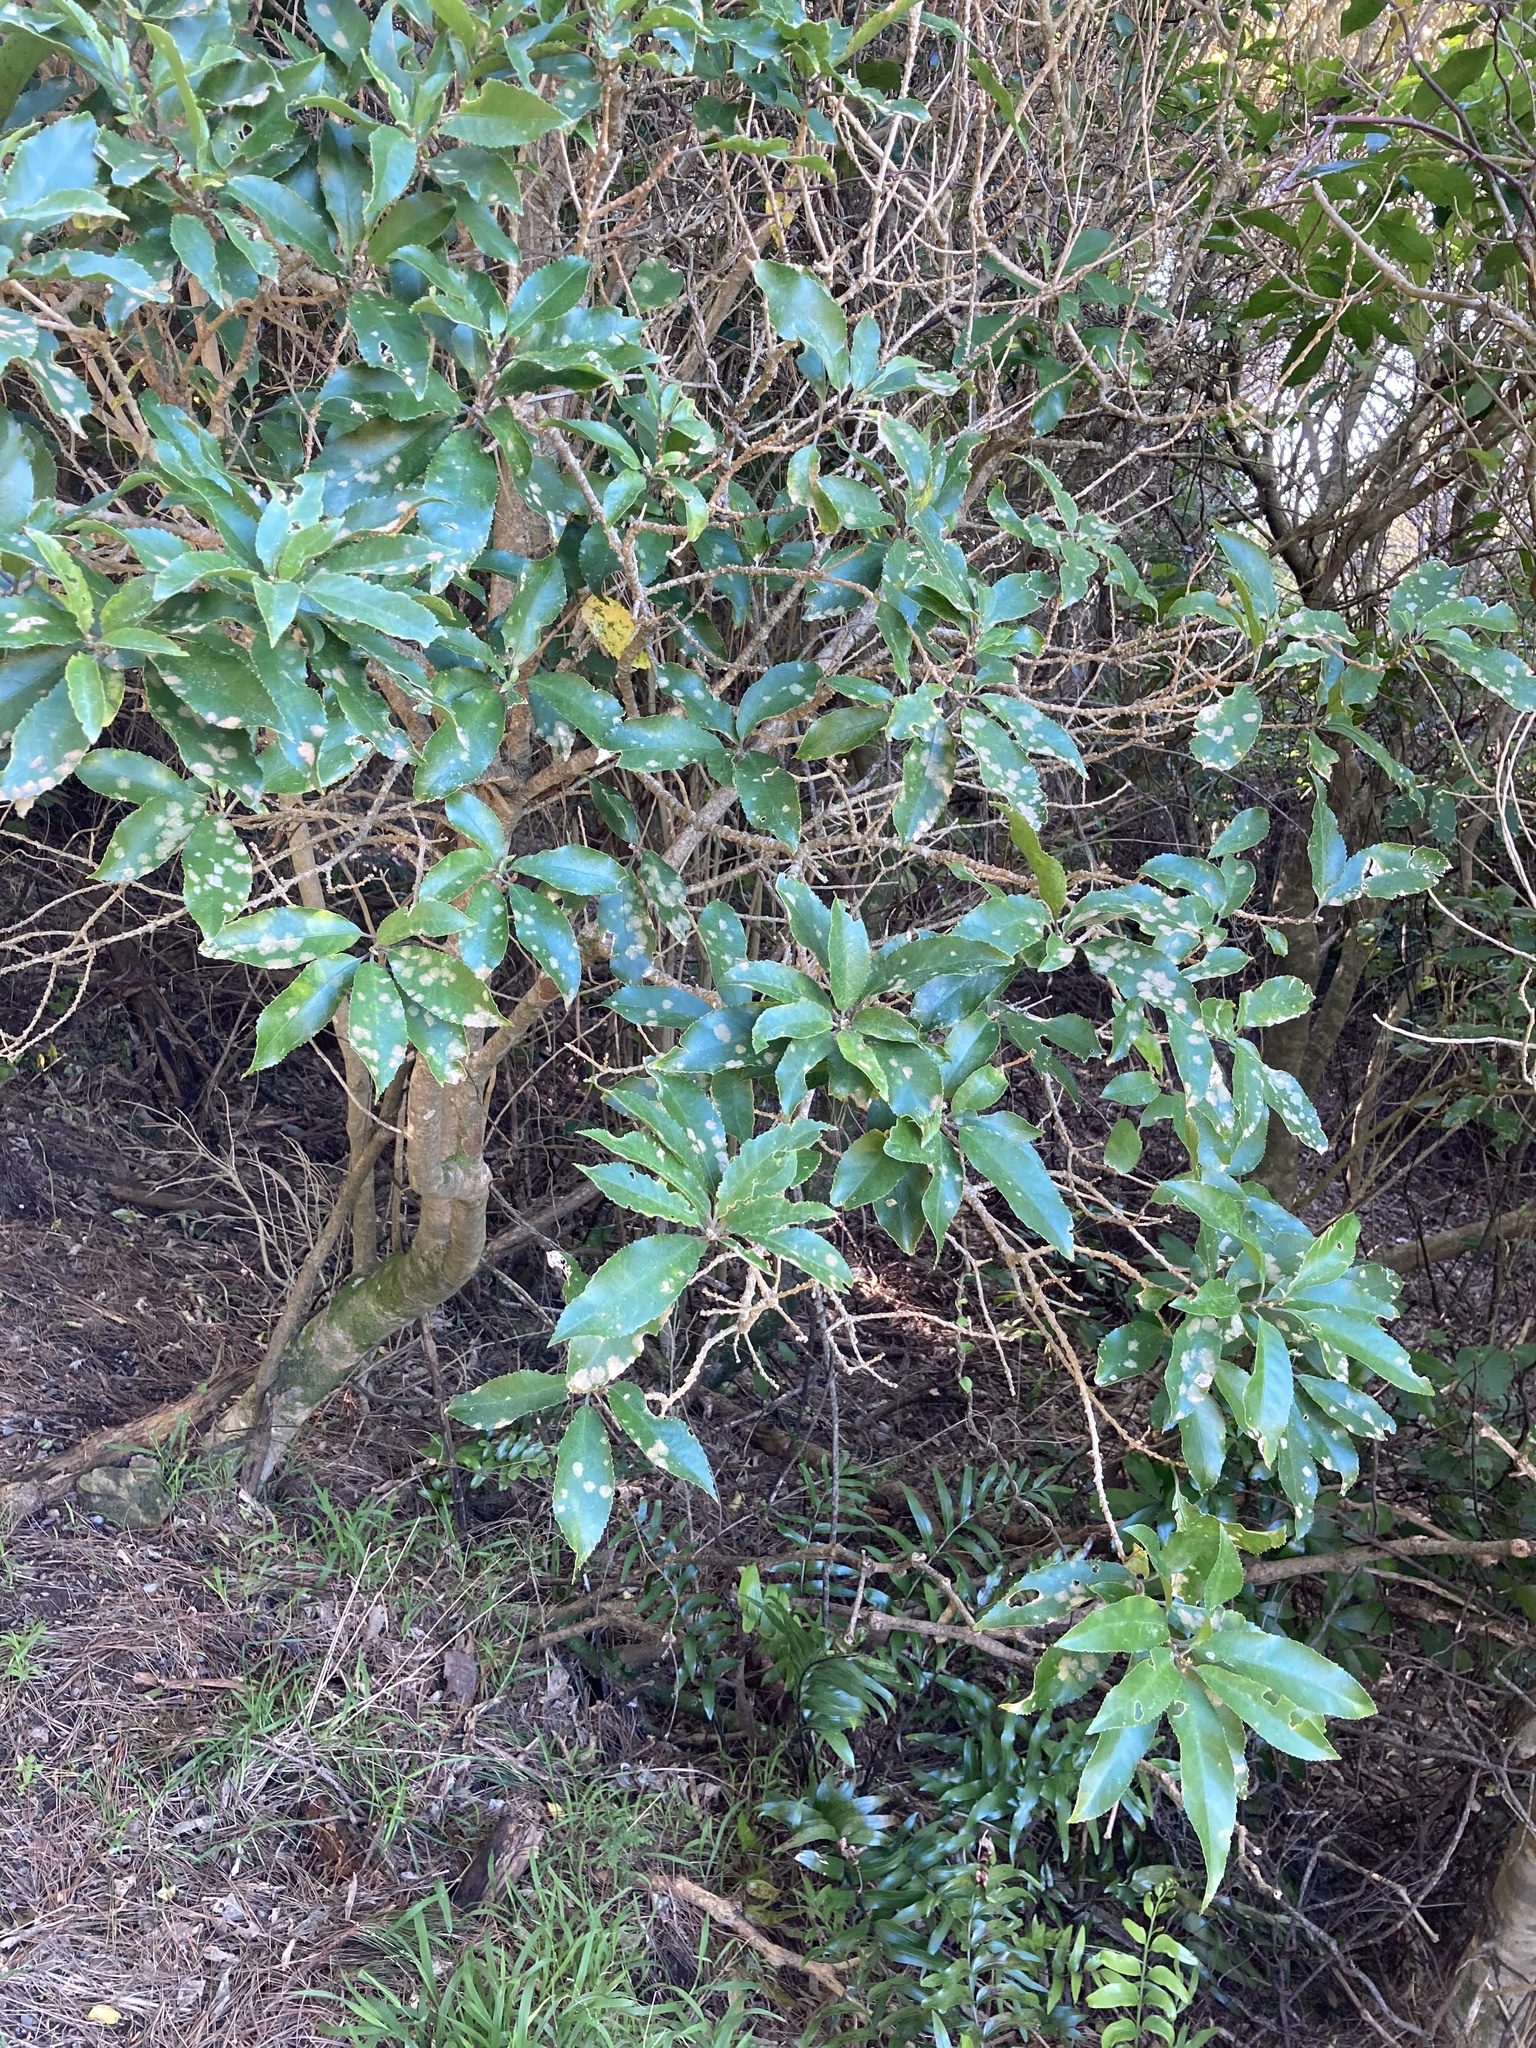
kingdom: Plantae
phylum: Tracheophyta
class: Magnoliopsida
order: Malpighiales
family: Violaceae
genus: Melicytus
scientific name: Melicytus ramiflorus
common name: Mahoe
